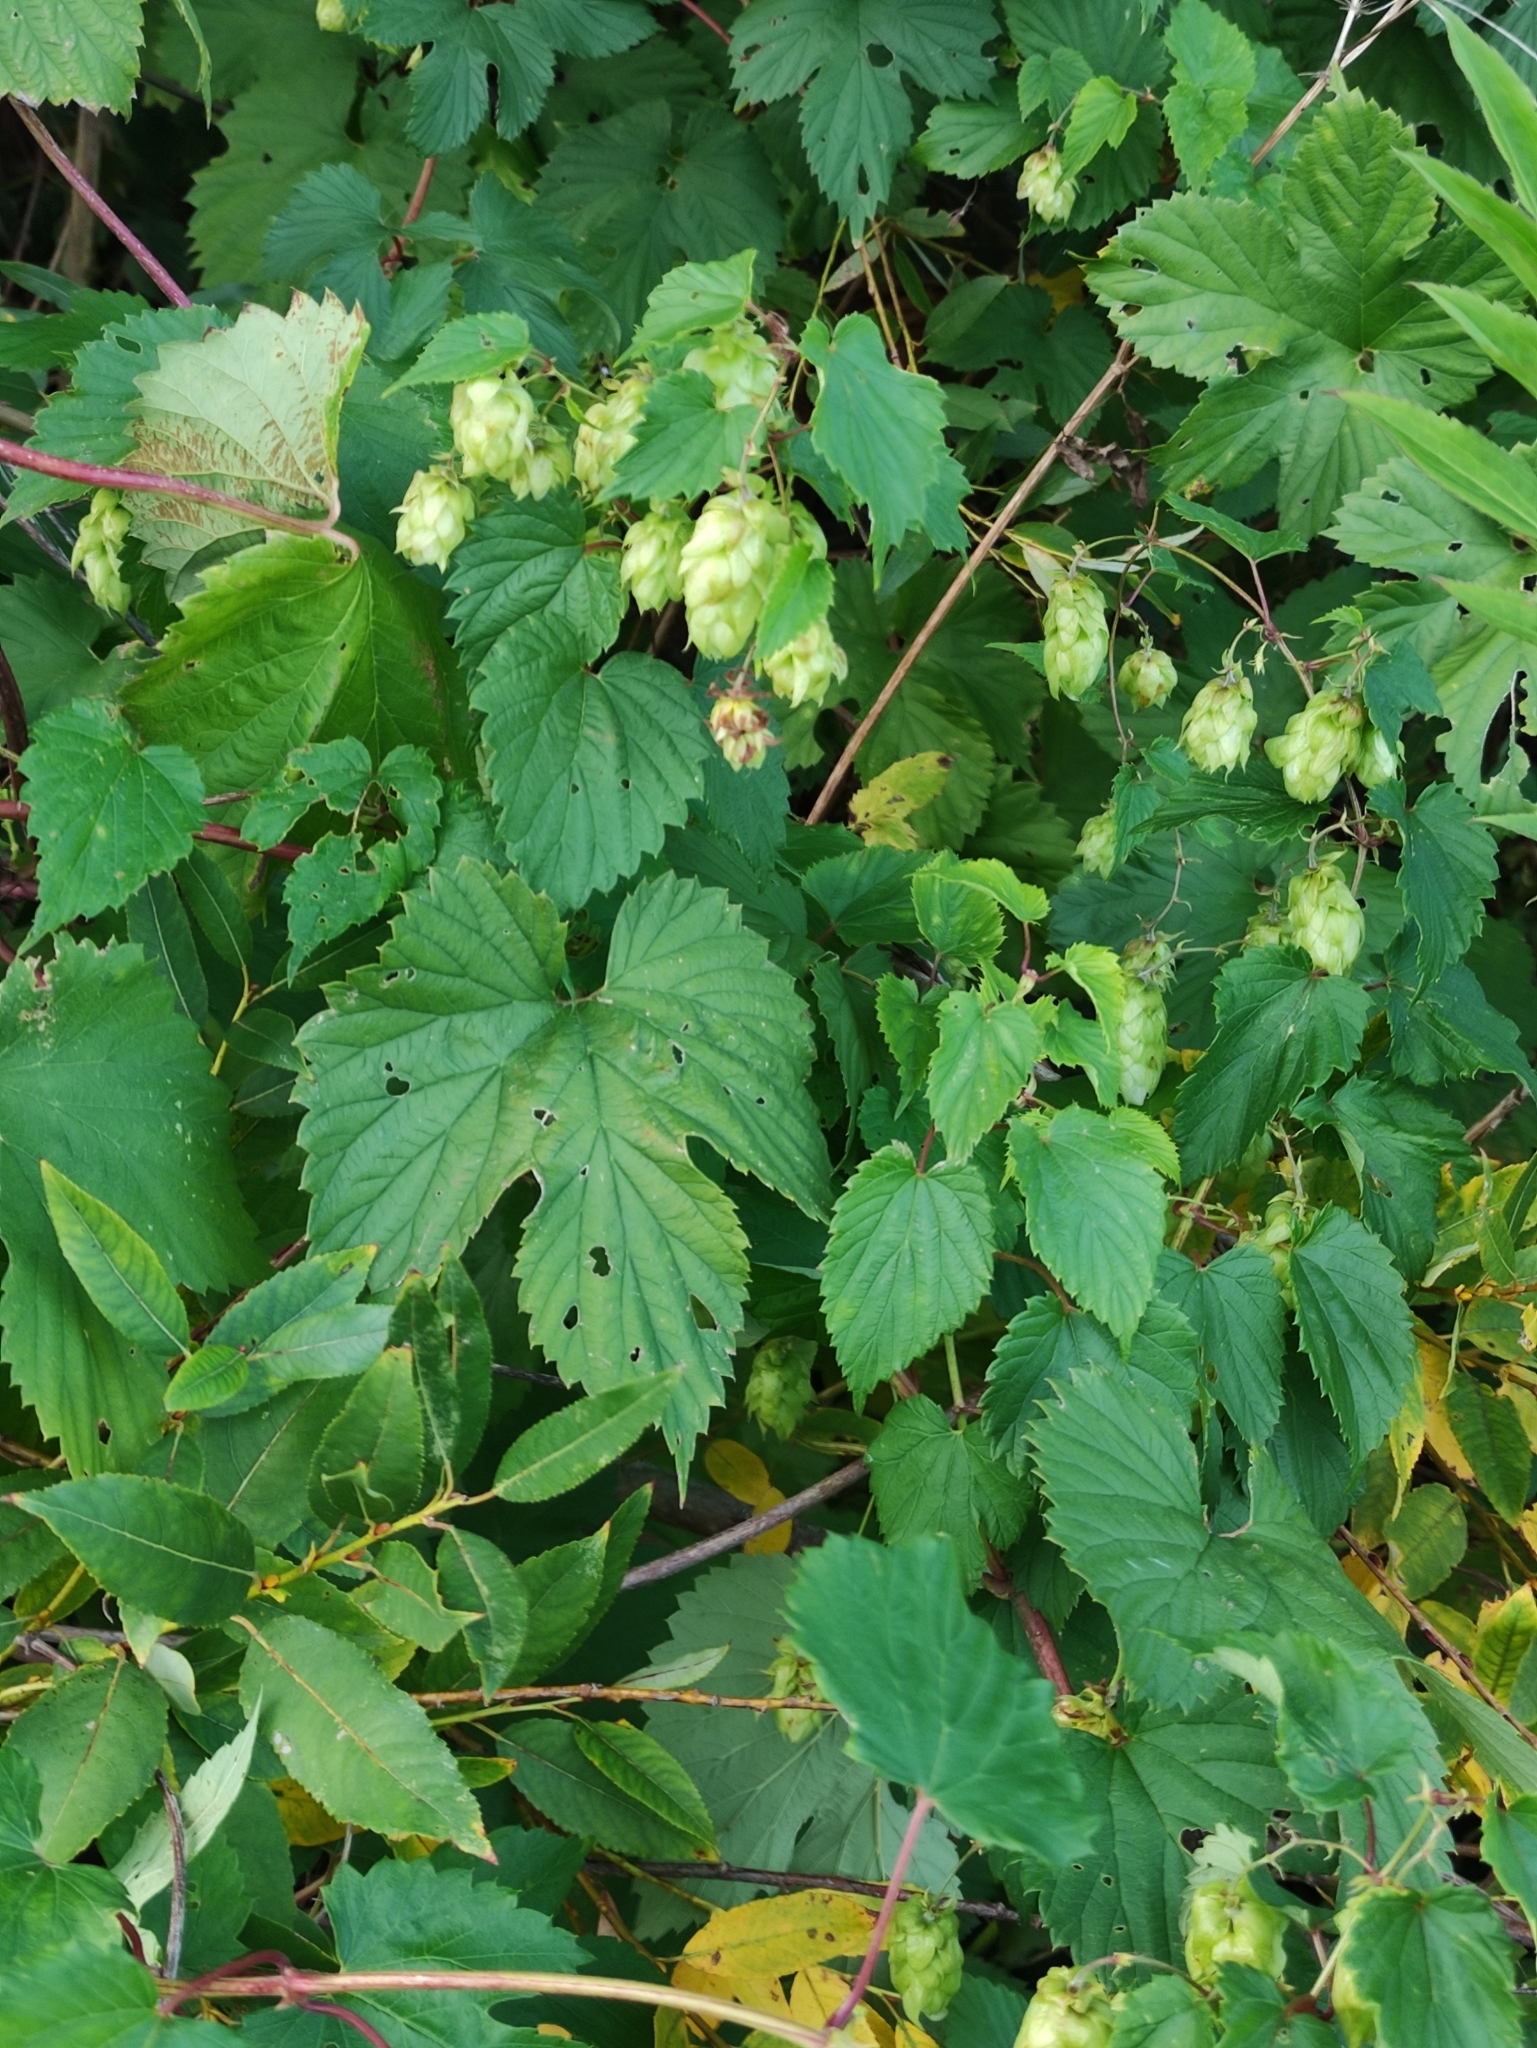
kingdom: Plantae
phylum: Tracheophyta
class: Magnoliopsida
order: Rosales
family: Cannabaceae
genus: Humulus
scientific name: Humulus lupulus
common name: Hop
